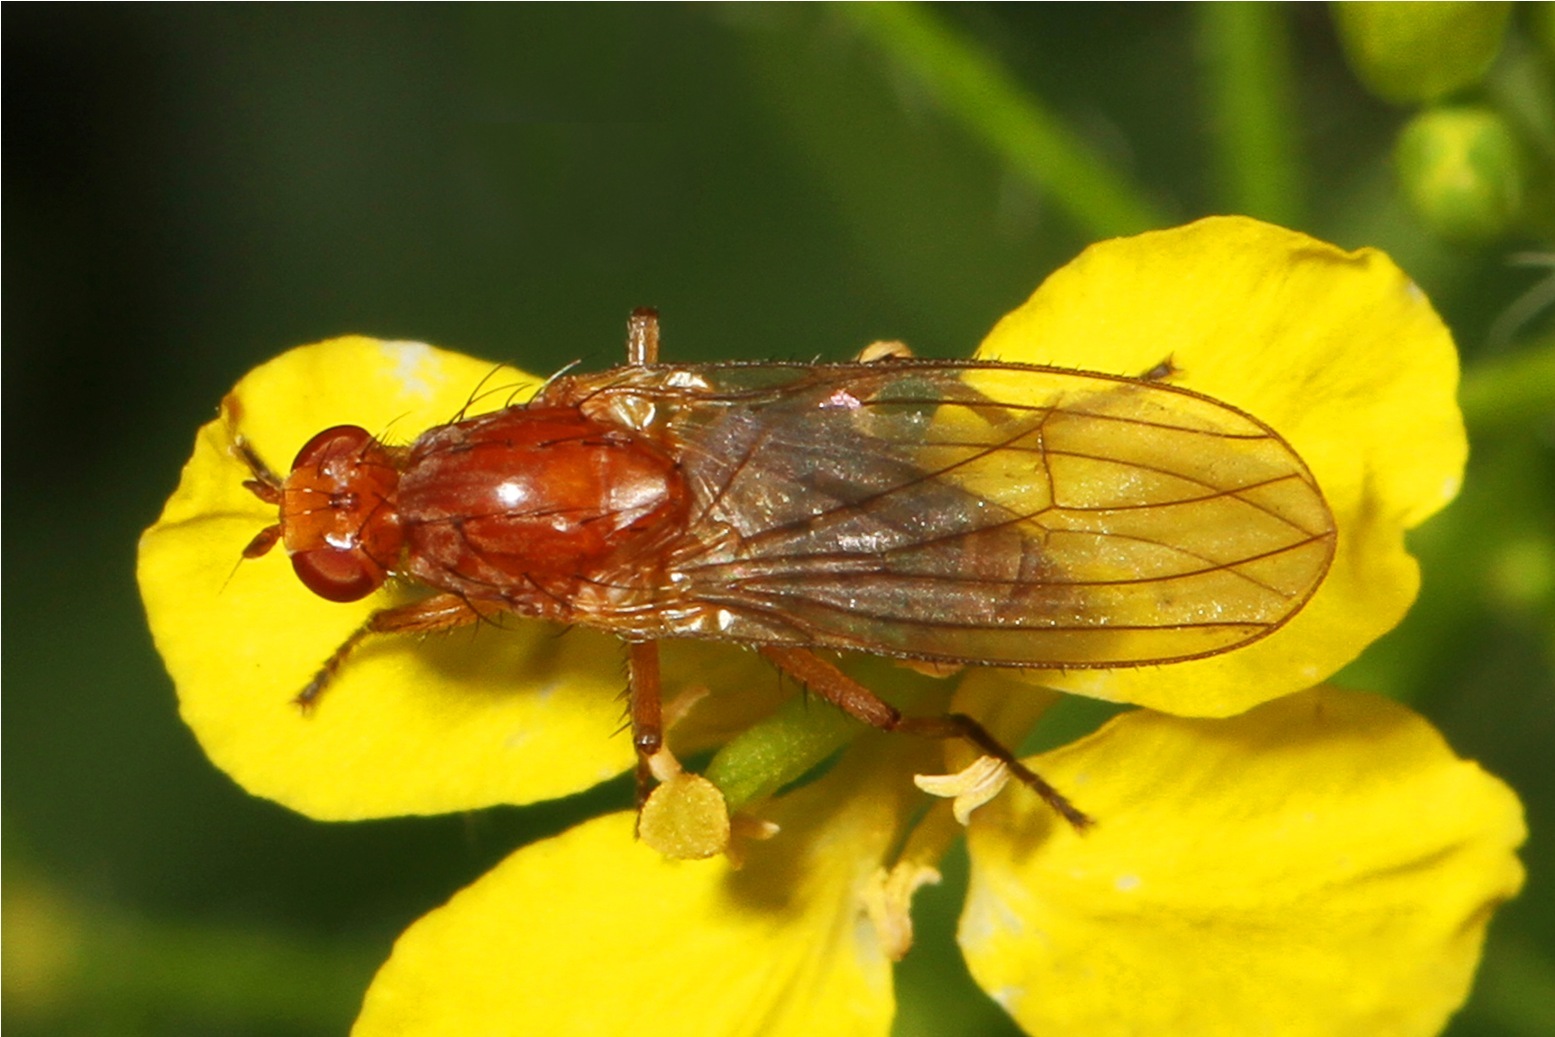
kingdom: Animalia
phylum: Arthropoda
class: Insecta
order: Diptera
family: Heleomyzidae
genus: Suillia
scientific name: Suillia convergens
